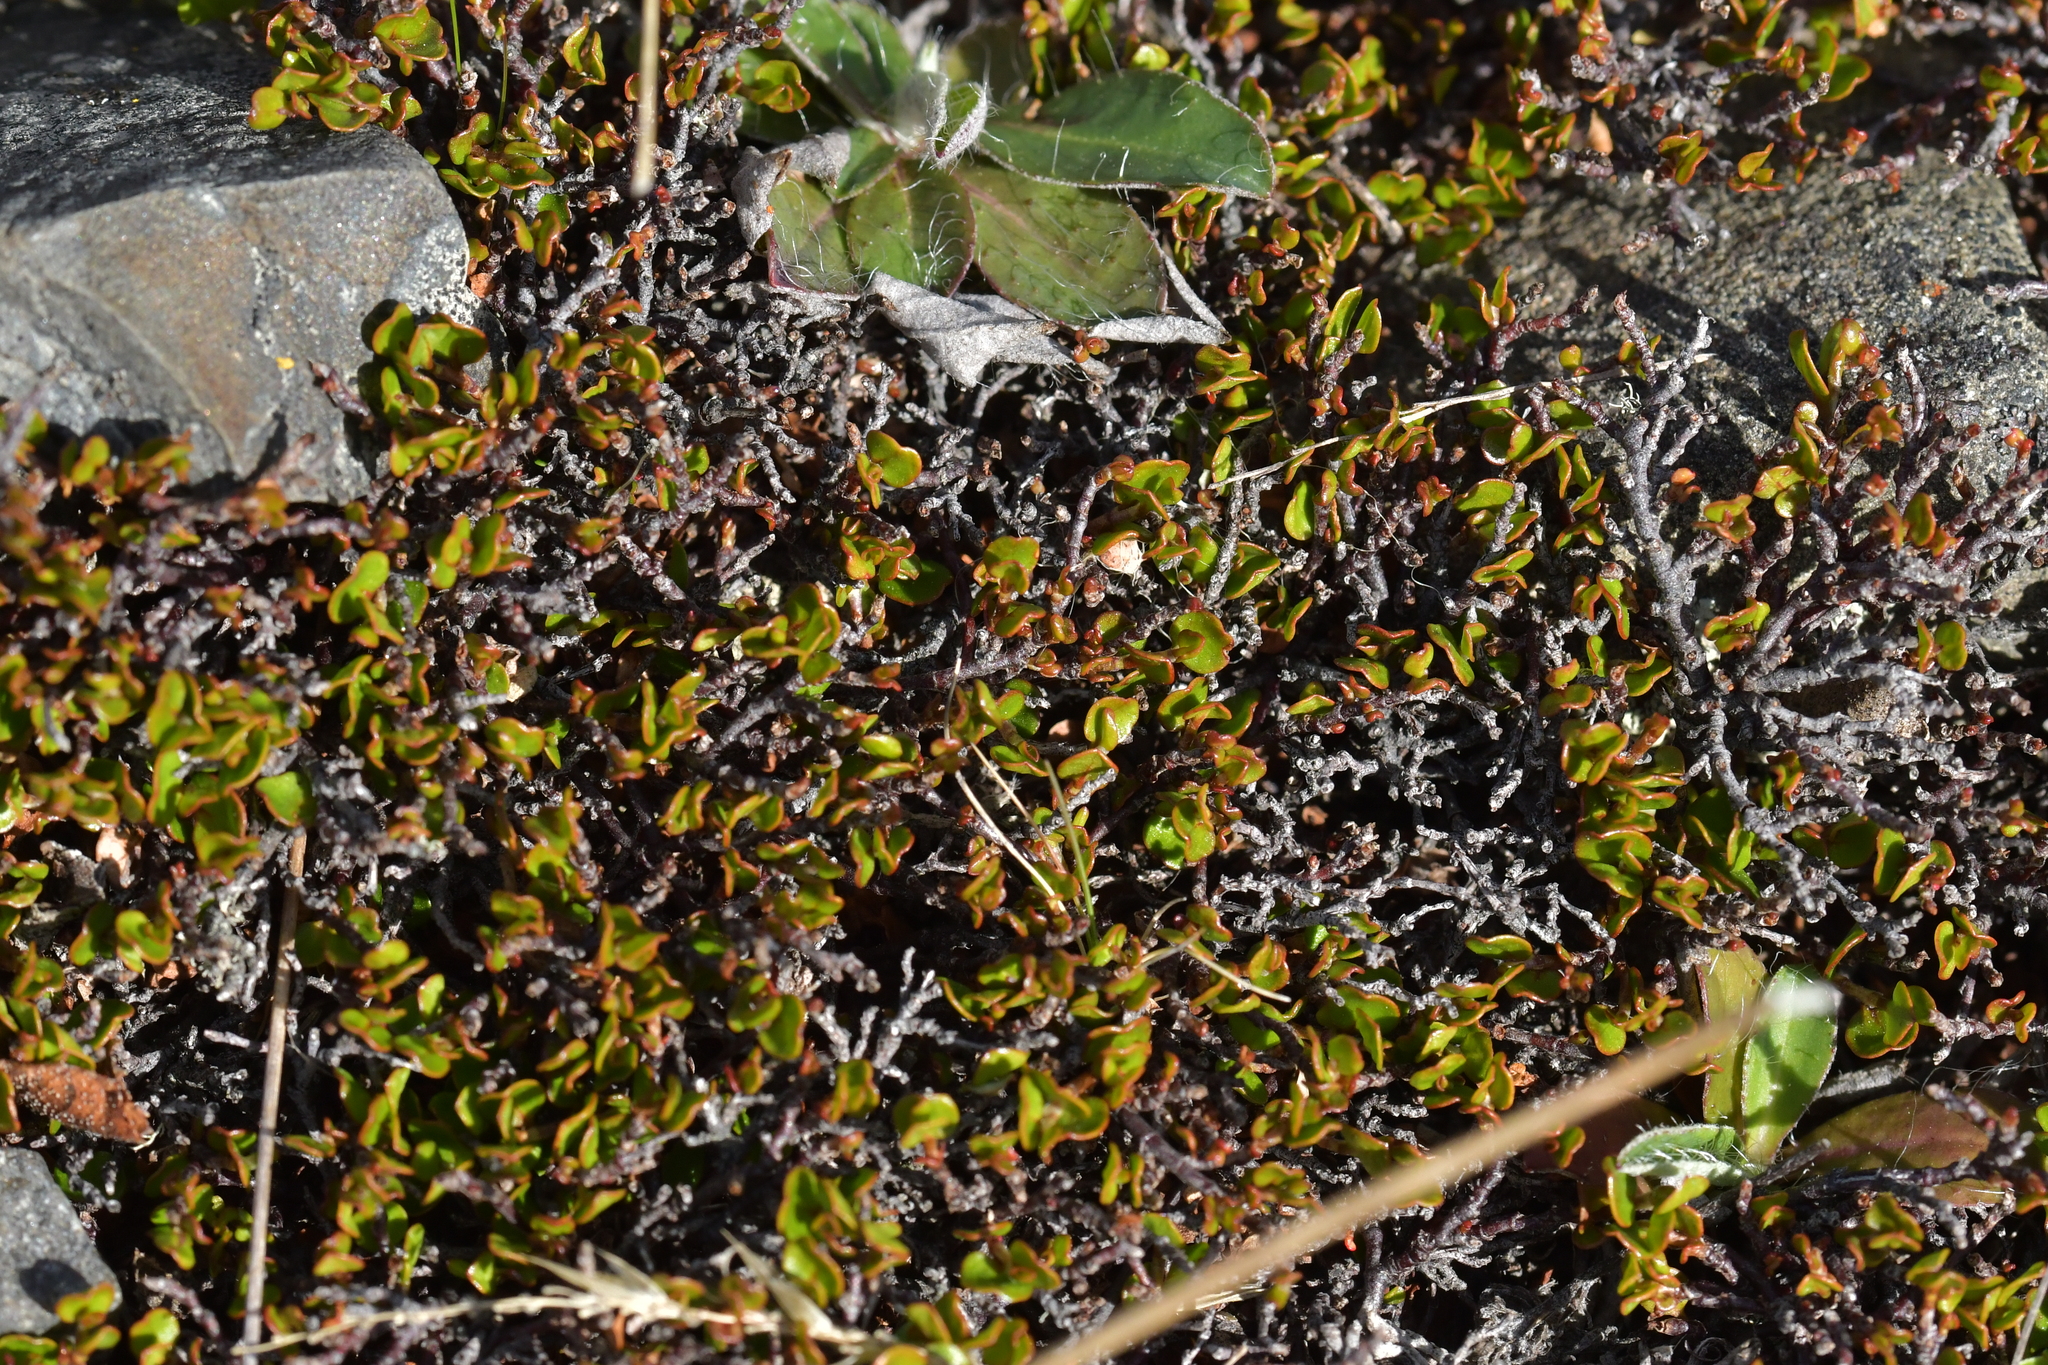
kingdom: Plantae
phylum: Tracheophyta
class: Magnoliopsida
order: Caryophyllales
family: Polygonaceae
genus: Muehlenbeckia
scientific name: Muehlenbeckia axillaris
